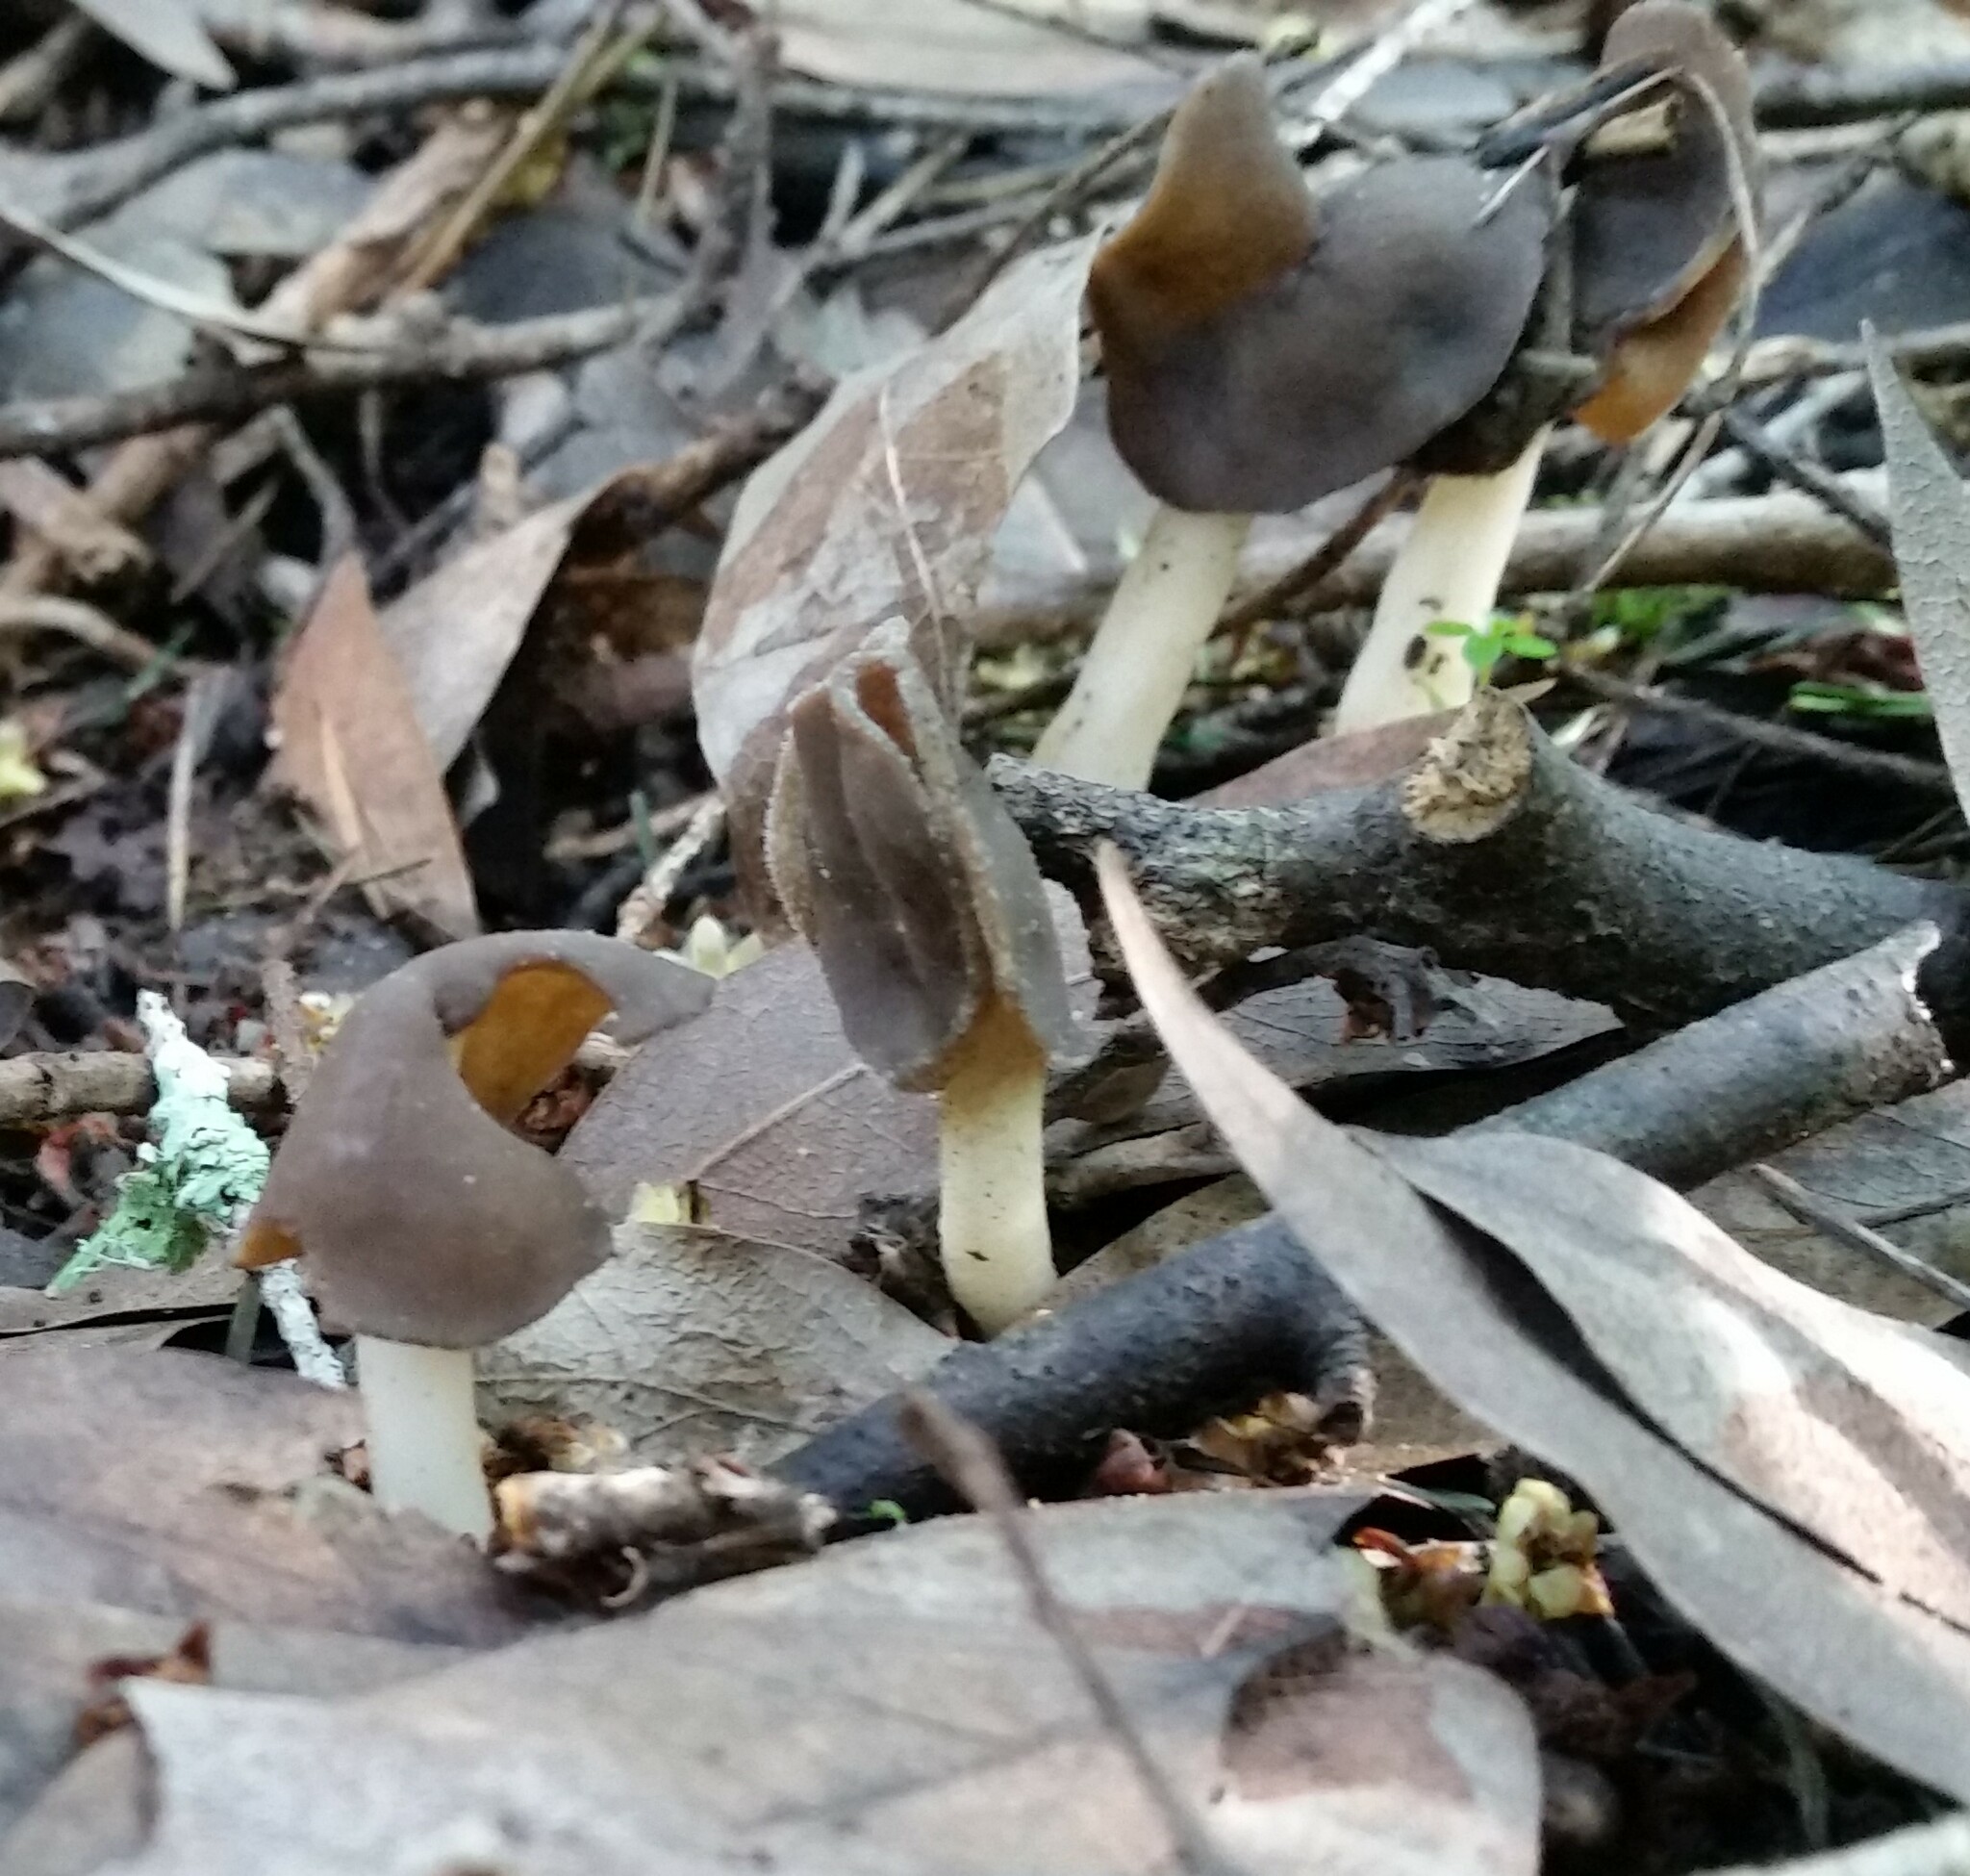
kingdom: Fungi
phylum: Ascomycota
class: Pezizomycetes
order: Pezizales
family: Helvellaceae
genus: Helvella
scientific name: Helvella compressa
